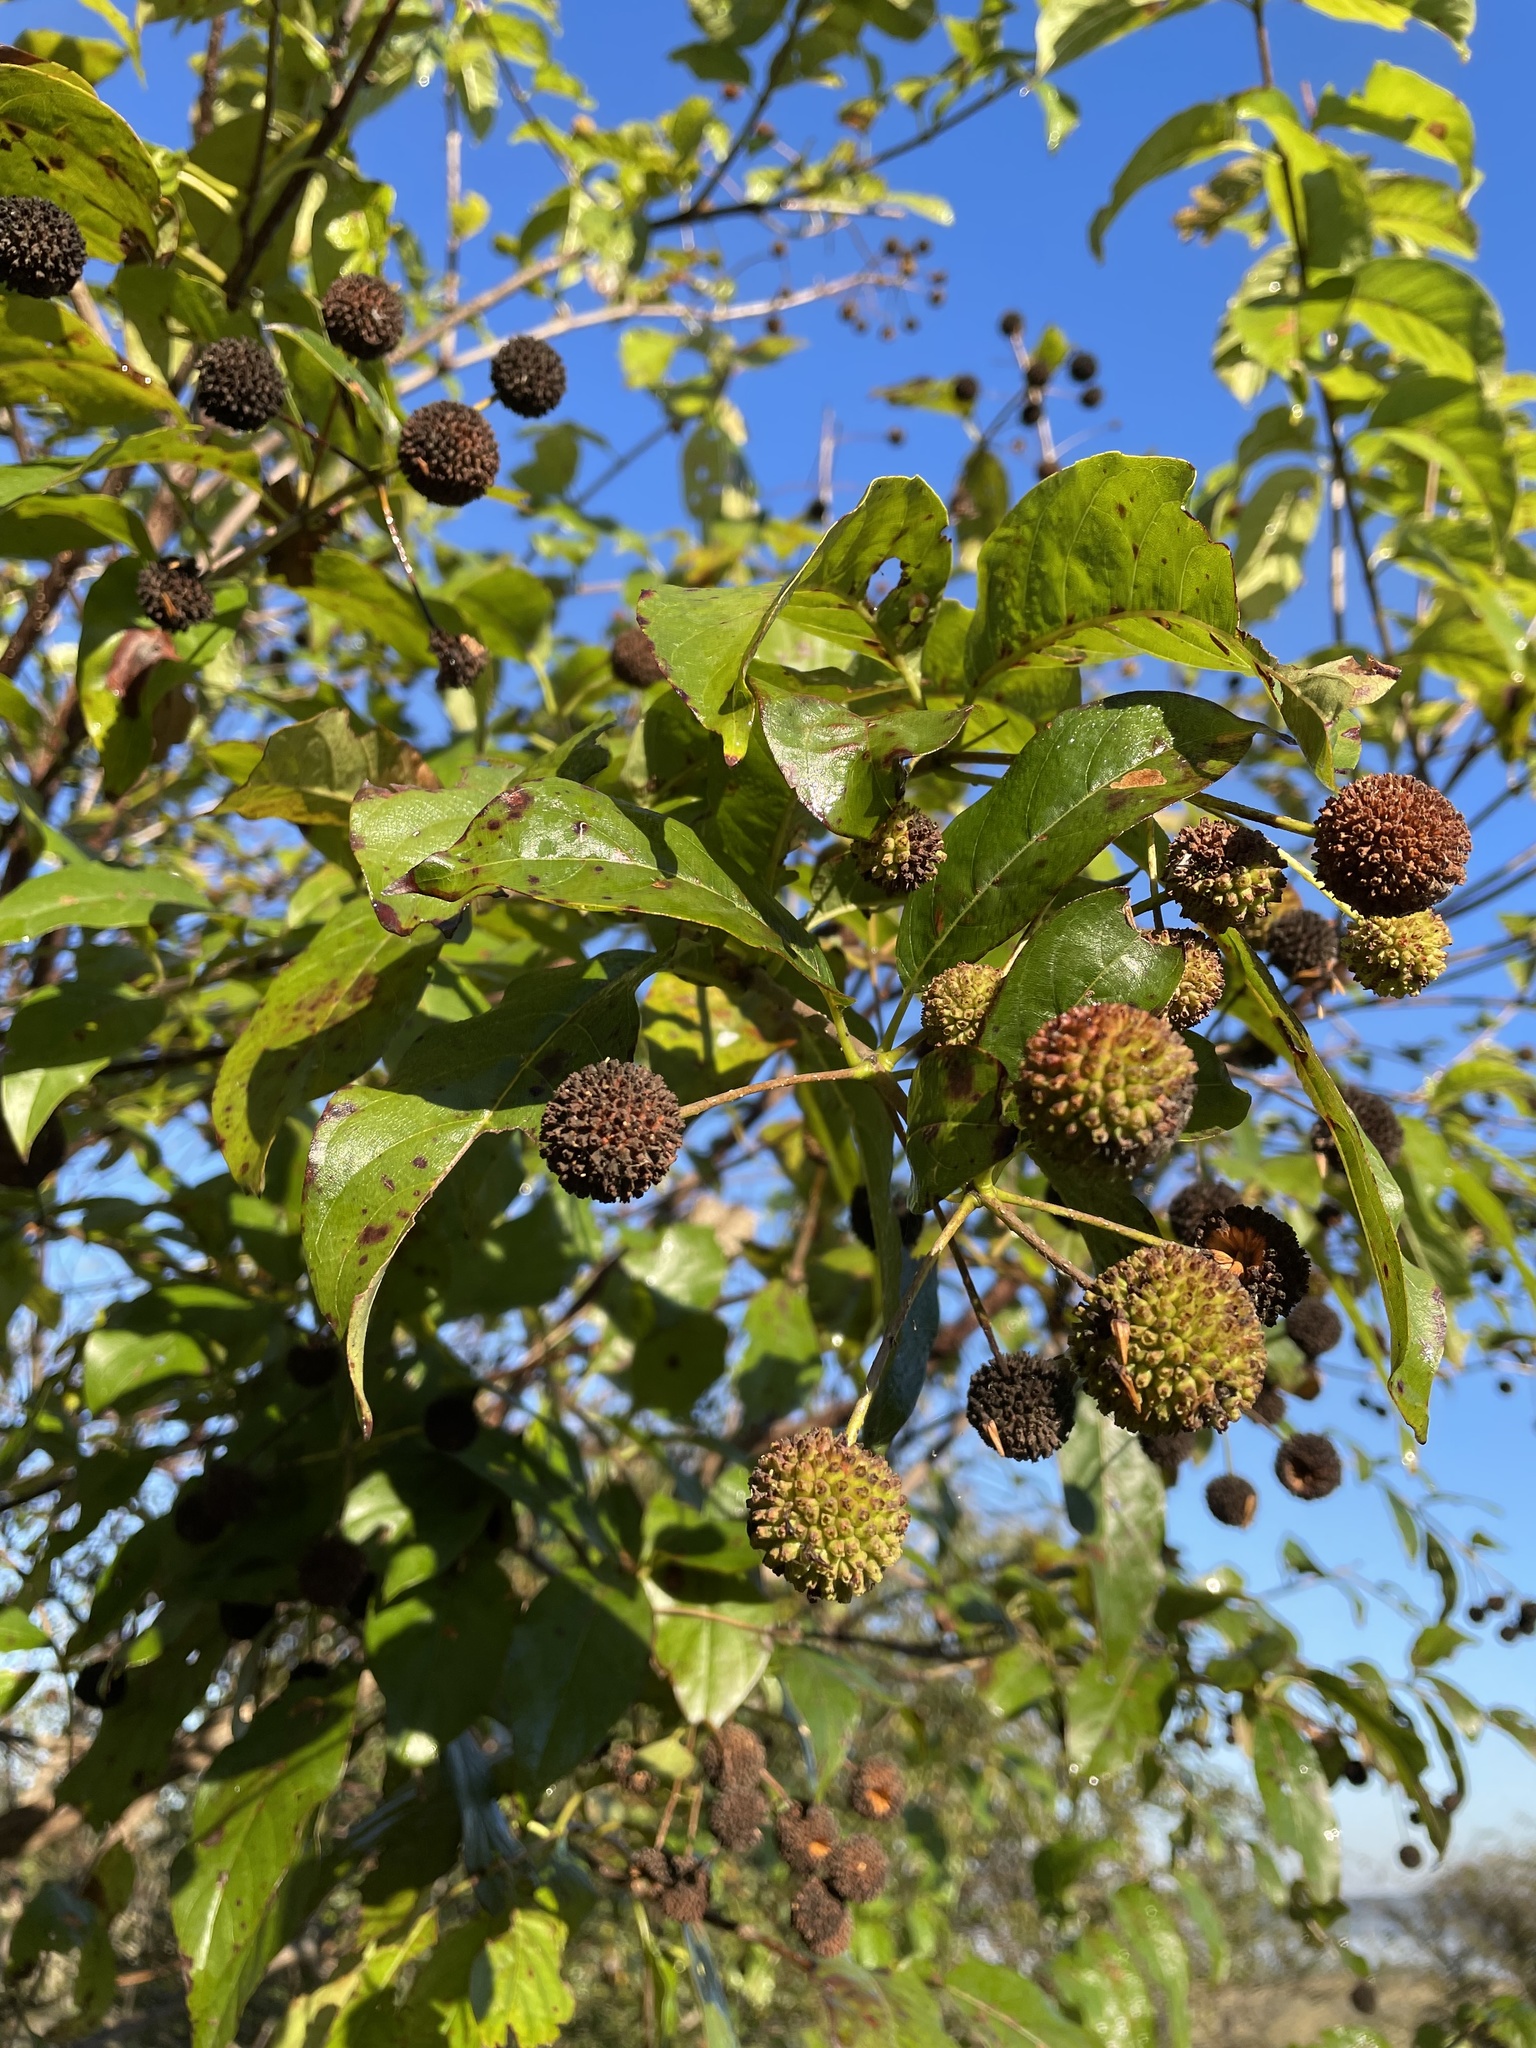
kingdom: Plantae
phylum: Tracheophyta
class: Magnoliopsida
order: Gentianales
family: Rubiaceae
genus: Cephalanthus
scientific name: Cephalanthus occidentalis
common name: Button-willow
